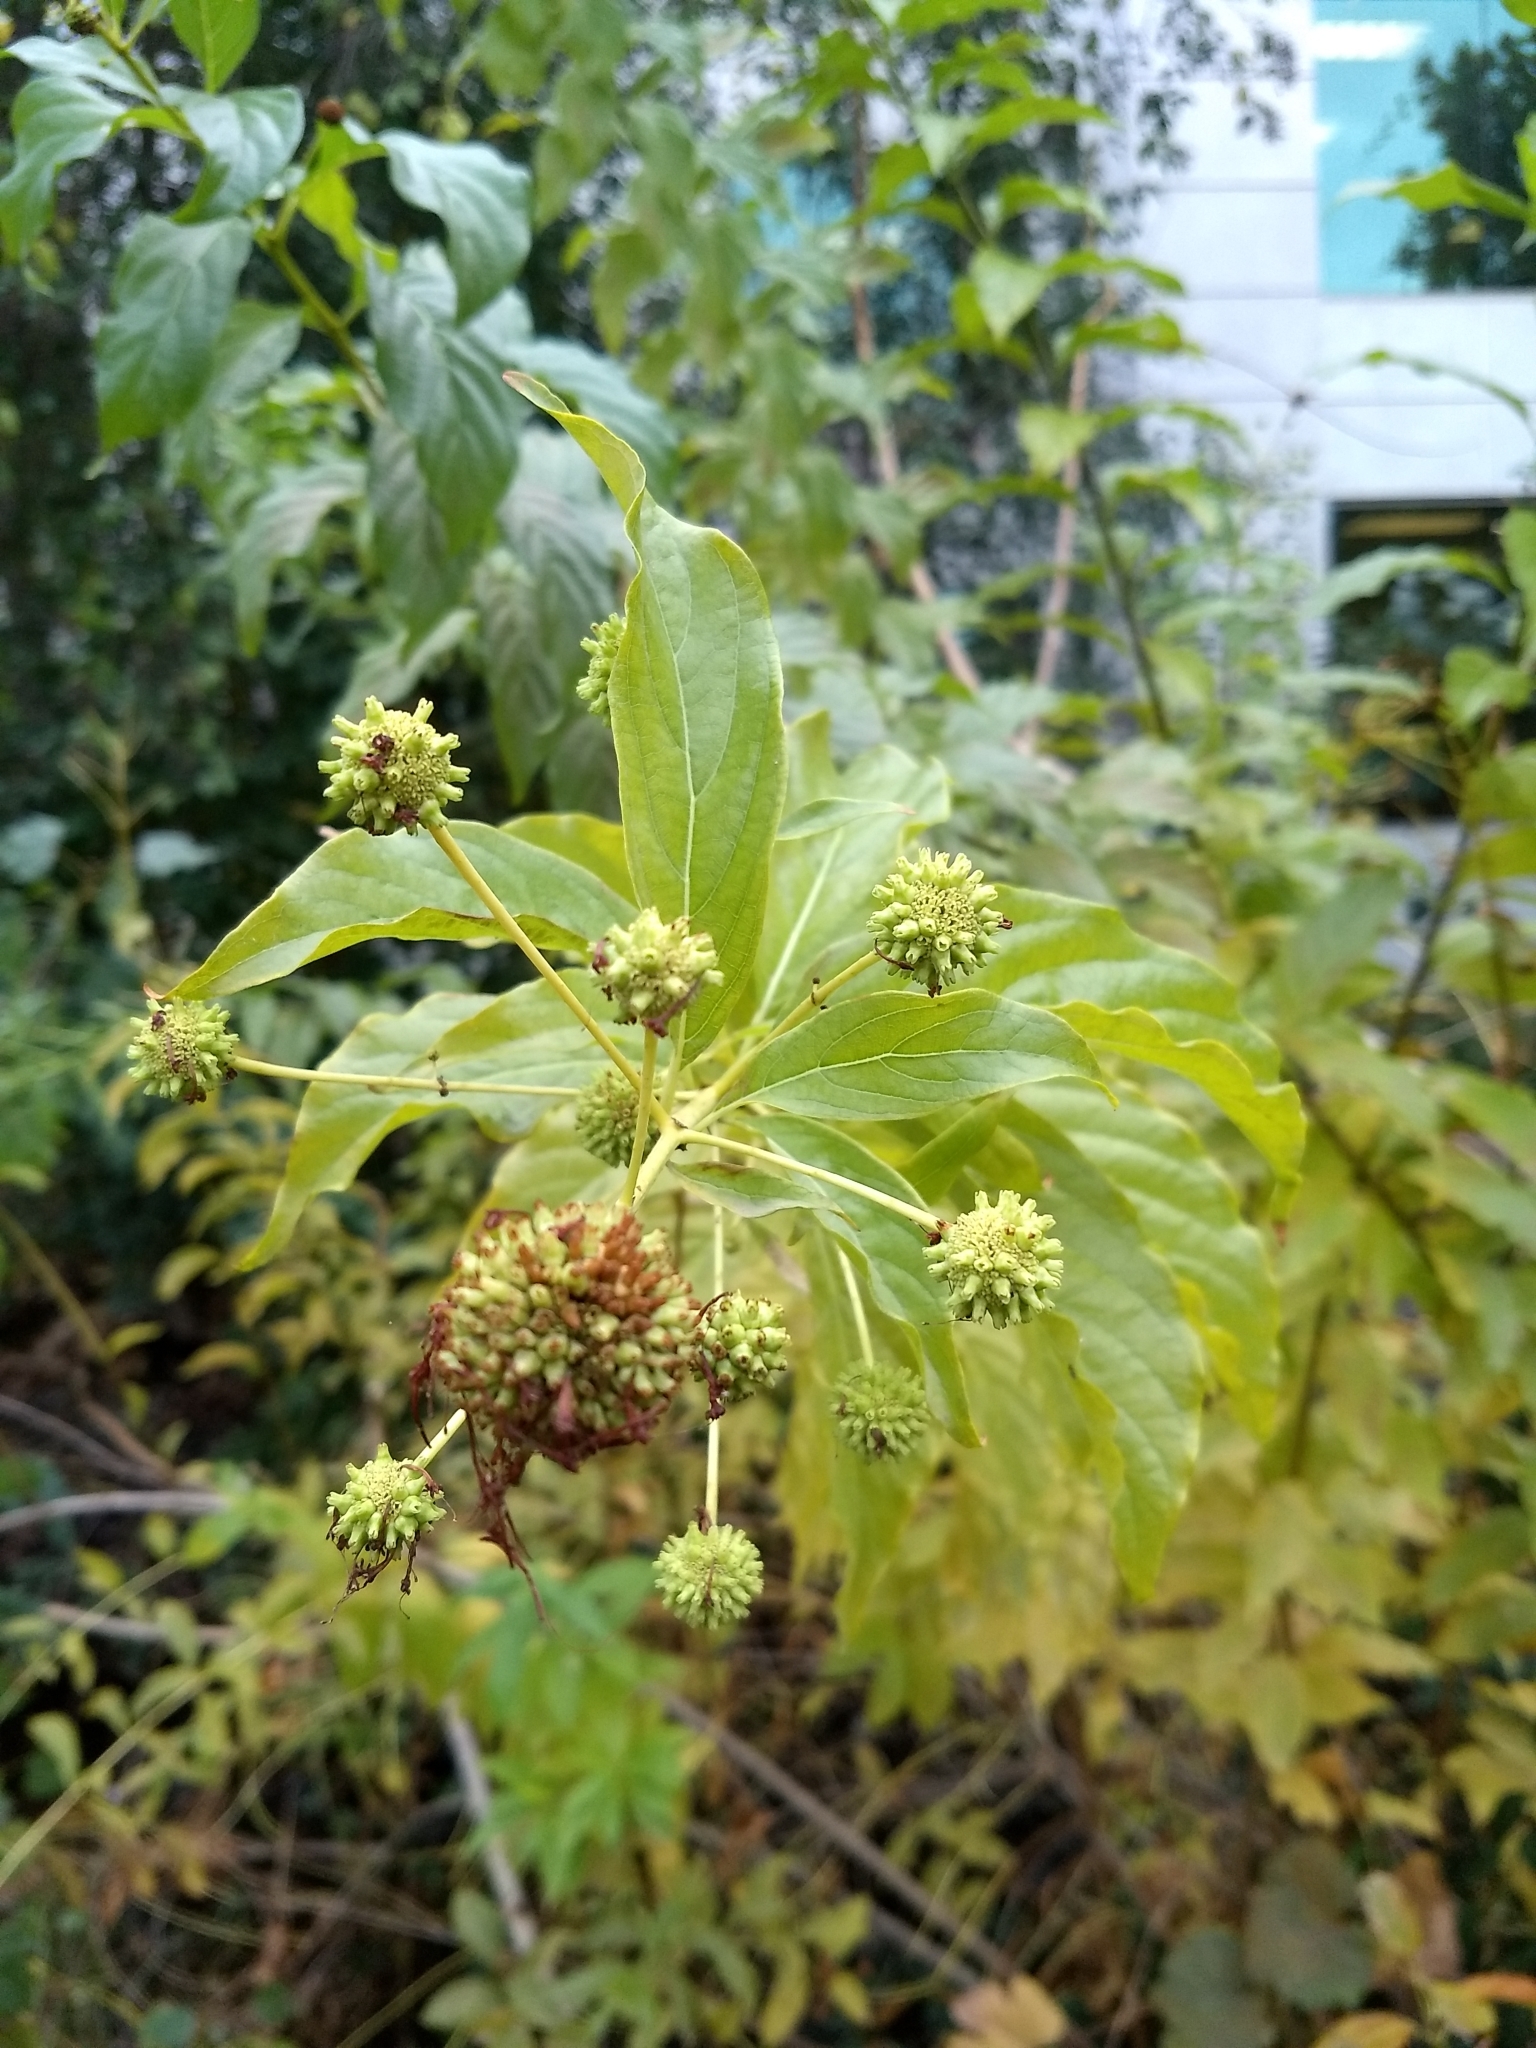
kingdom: Plantae
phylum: Tracheophyta
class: Magnoliopsida
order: Gentianales
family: Rubiaceae
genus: Cephalanthus
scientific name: Cephalanthus occidentalis
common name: Button-willow
